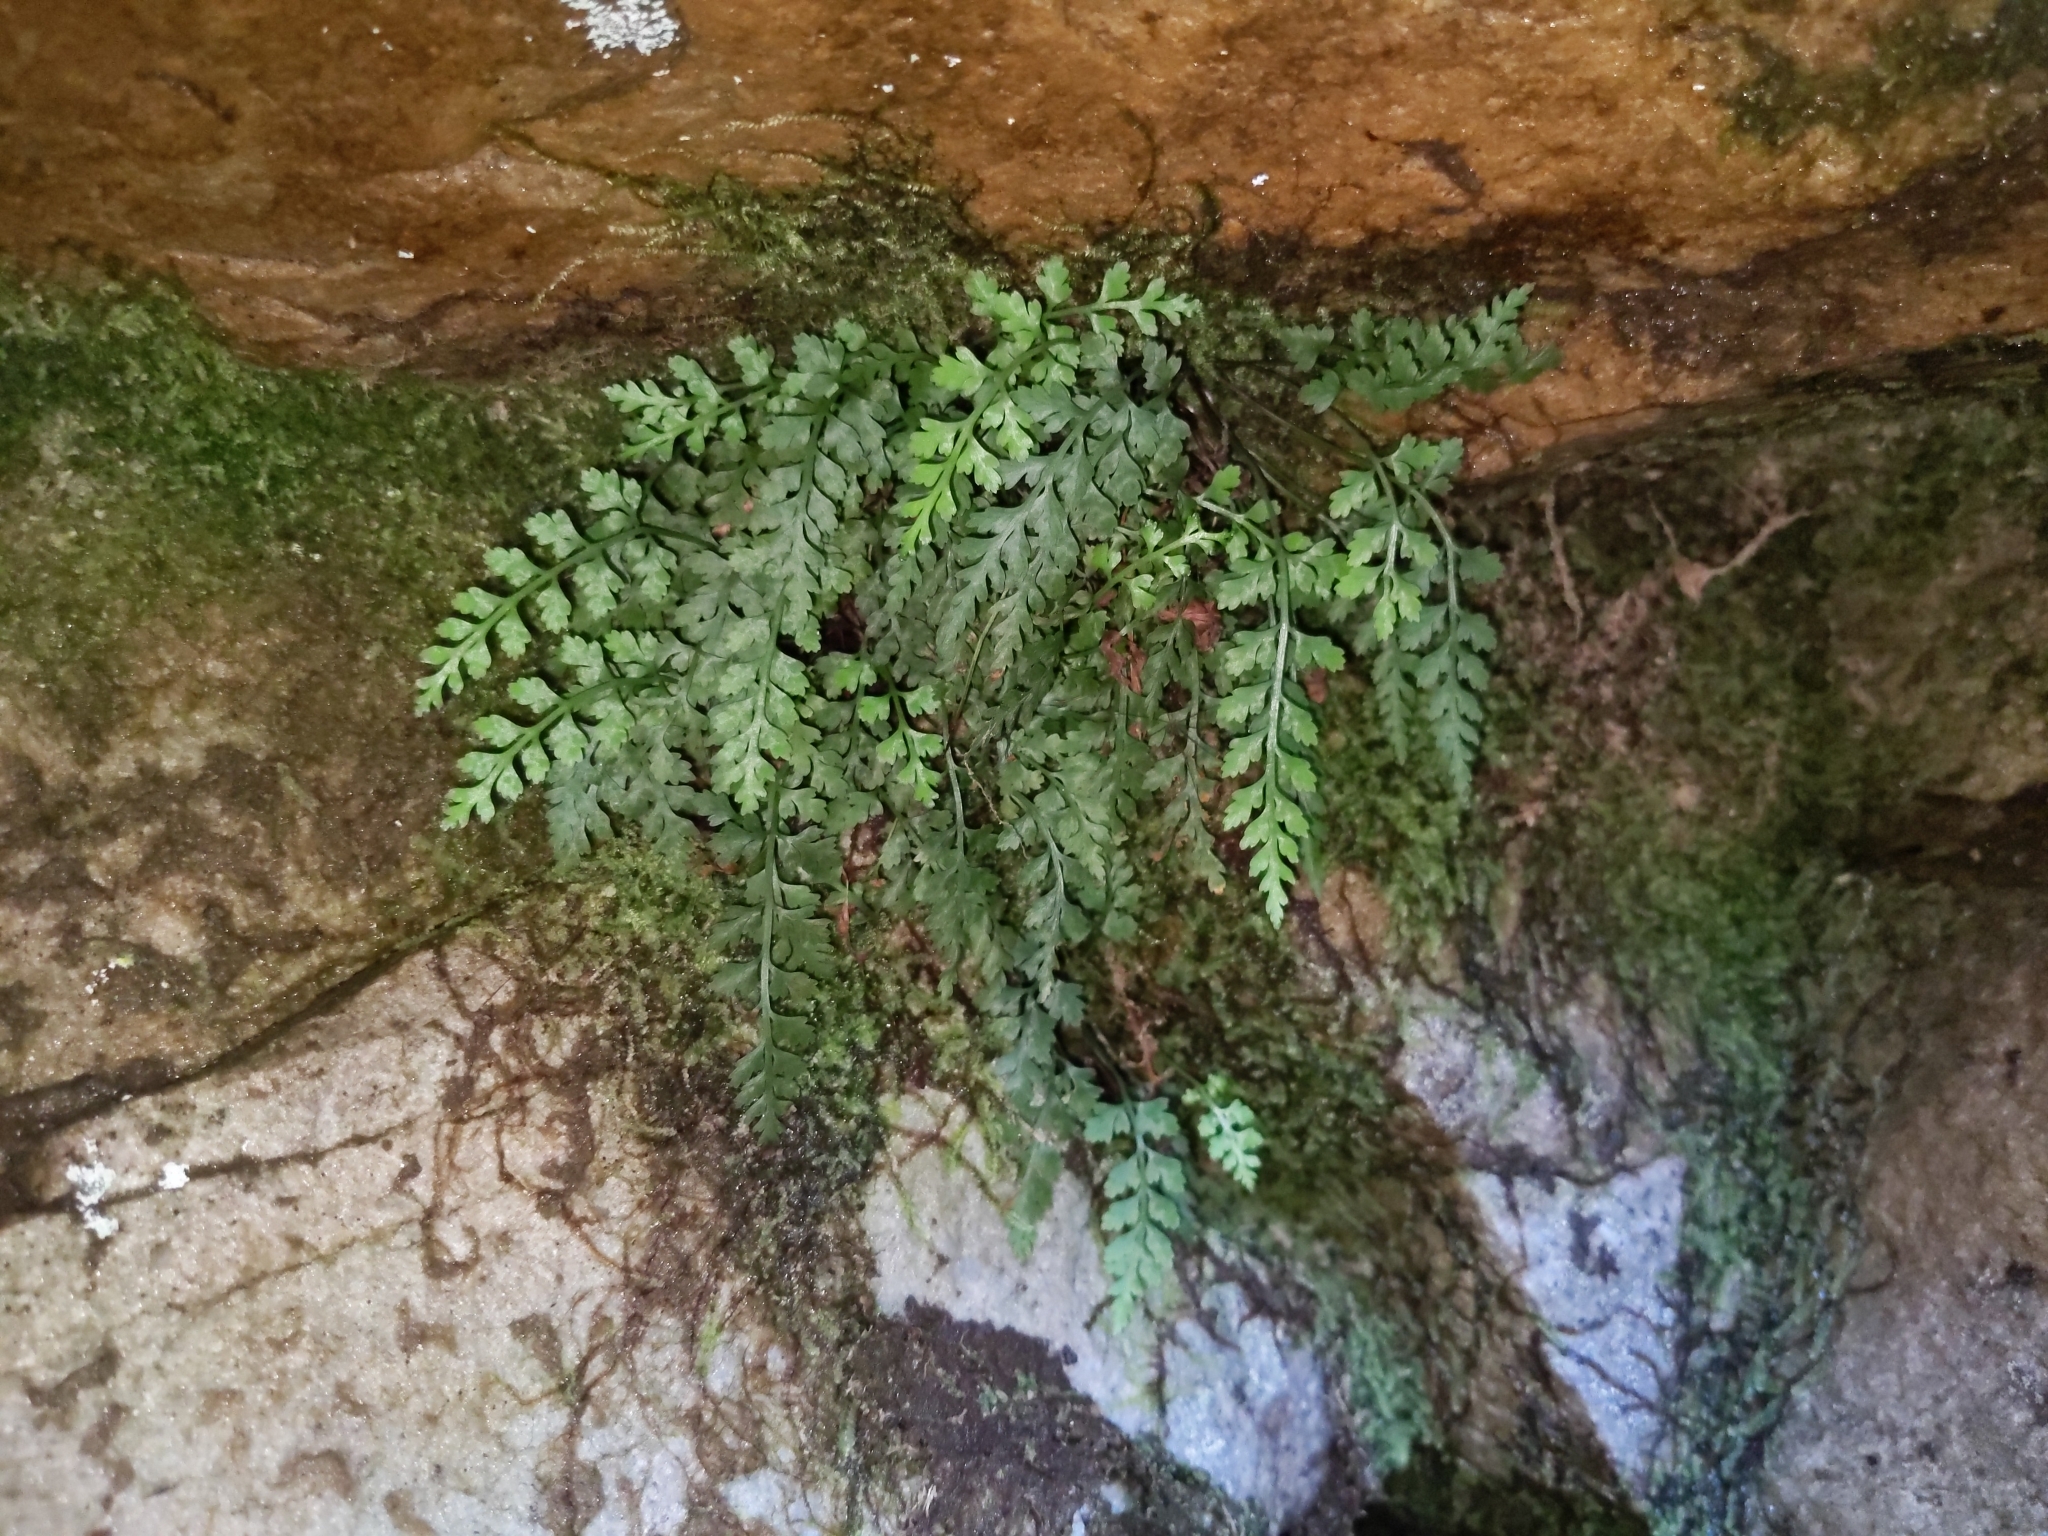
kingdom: Plantae
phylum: Tracheophyta
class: Polypodiopsida
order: Polypodiales
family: Aspleniaceae
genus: Asplenium
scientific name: Asplenium montanum
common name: Mountain spleenwort
